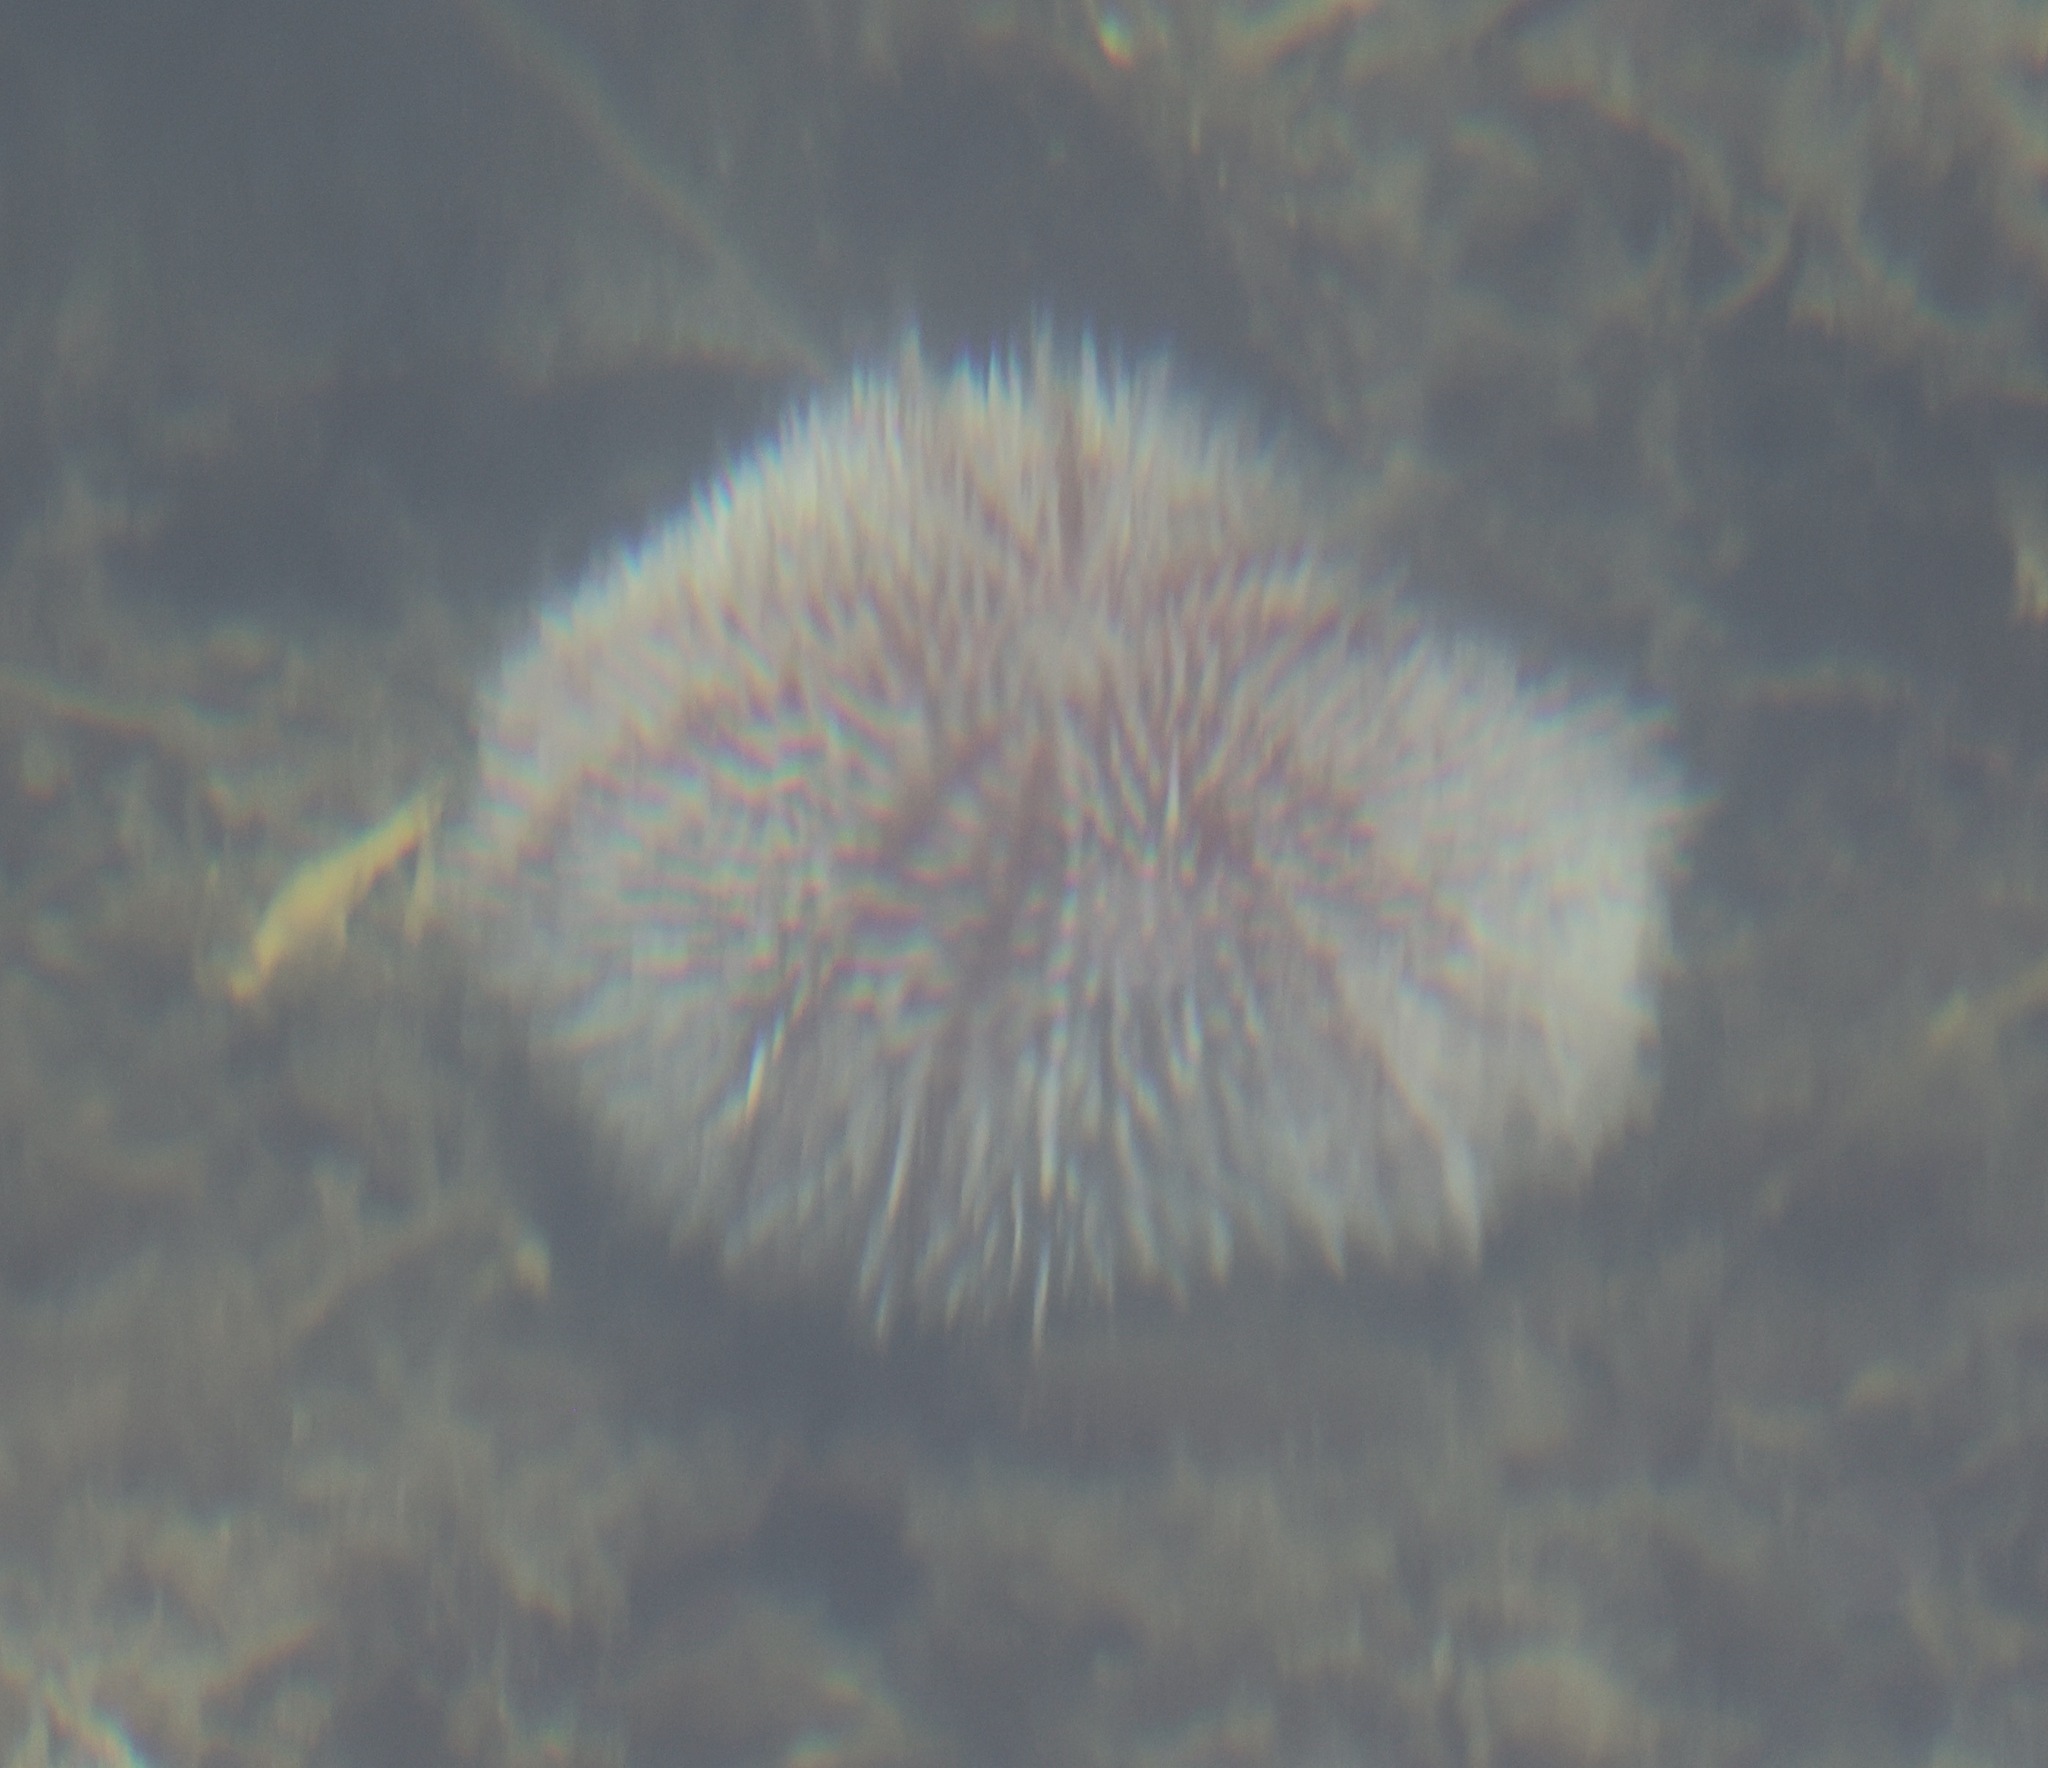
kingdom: Animalia
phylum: Echinodermata
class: Echinoidea
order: Camarodonta
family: Echinidae
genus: Echinus
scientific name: Echinus esculentus
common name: Edible sea urchin
